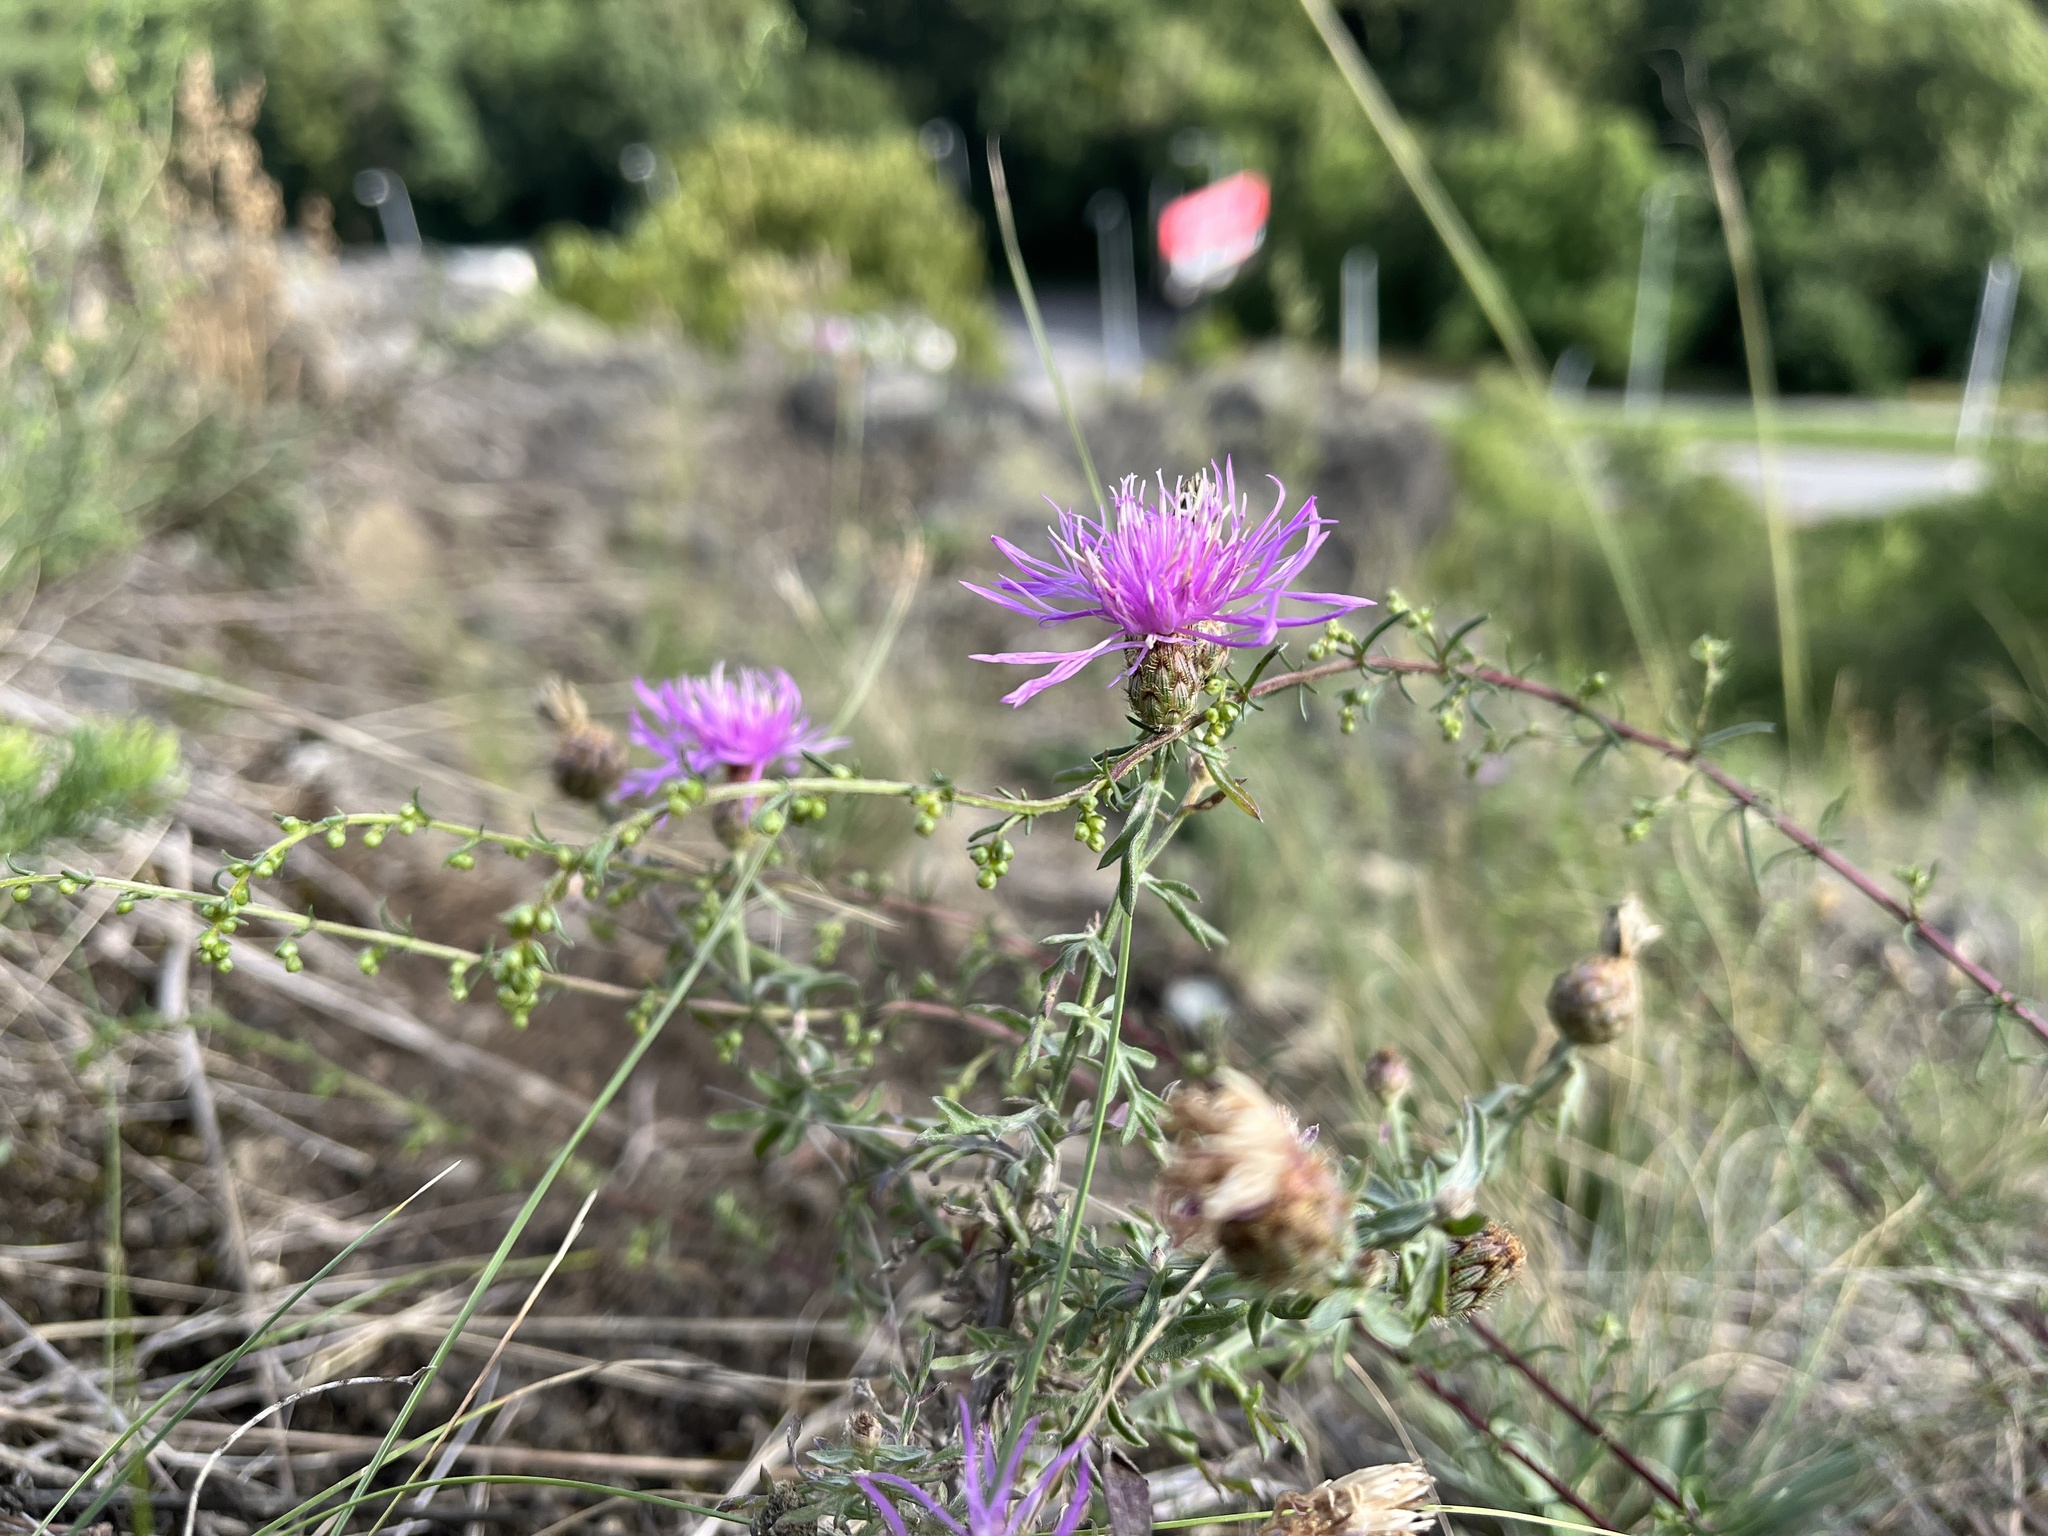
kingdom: Plantae
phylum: Tracheophyta
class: Magnoliopsida
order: Asterales
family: Asteraceae
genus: Centaurea
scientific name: Centaurea stoebe
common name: Spotted knapweed
